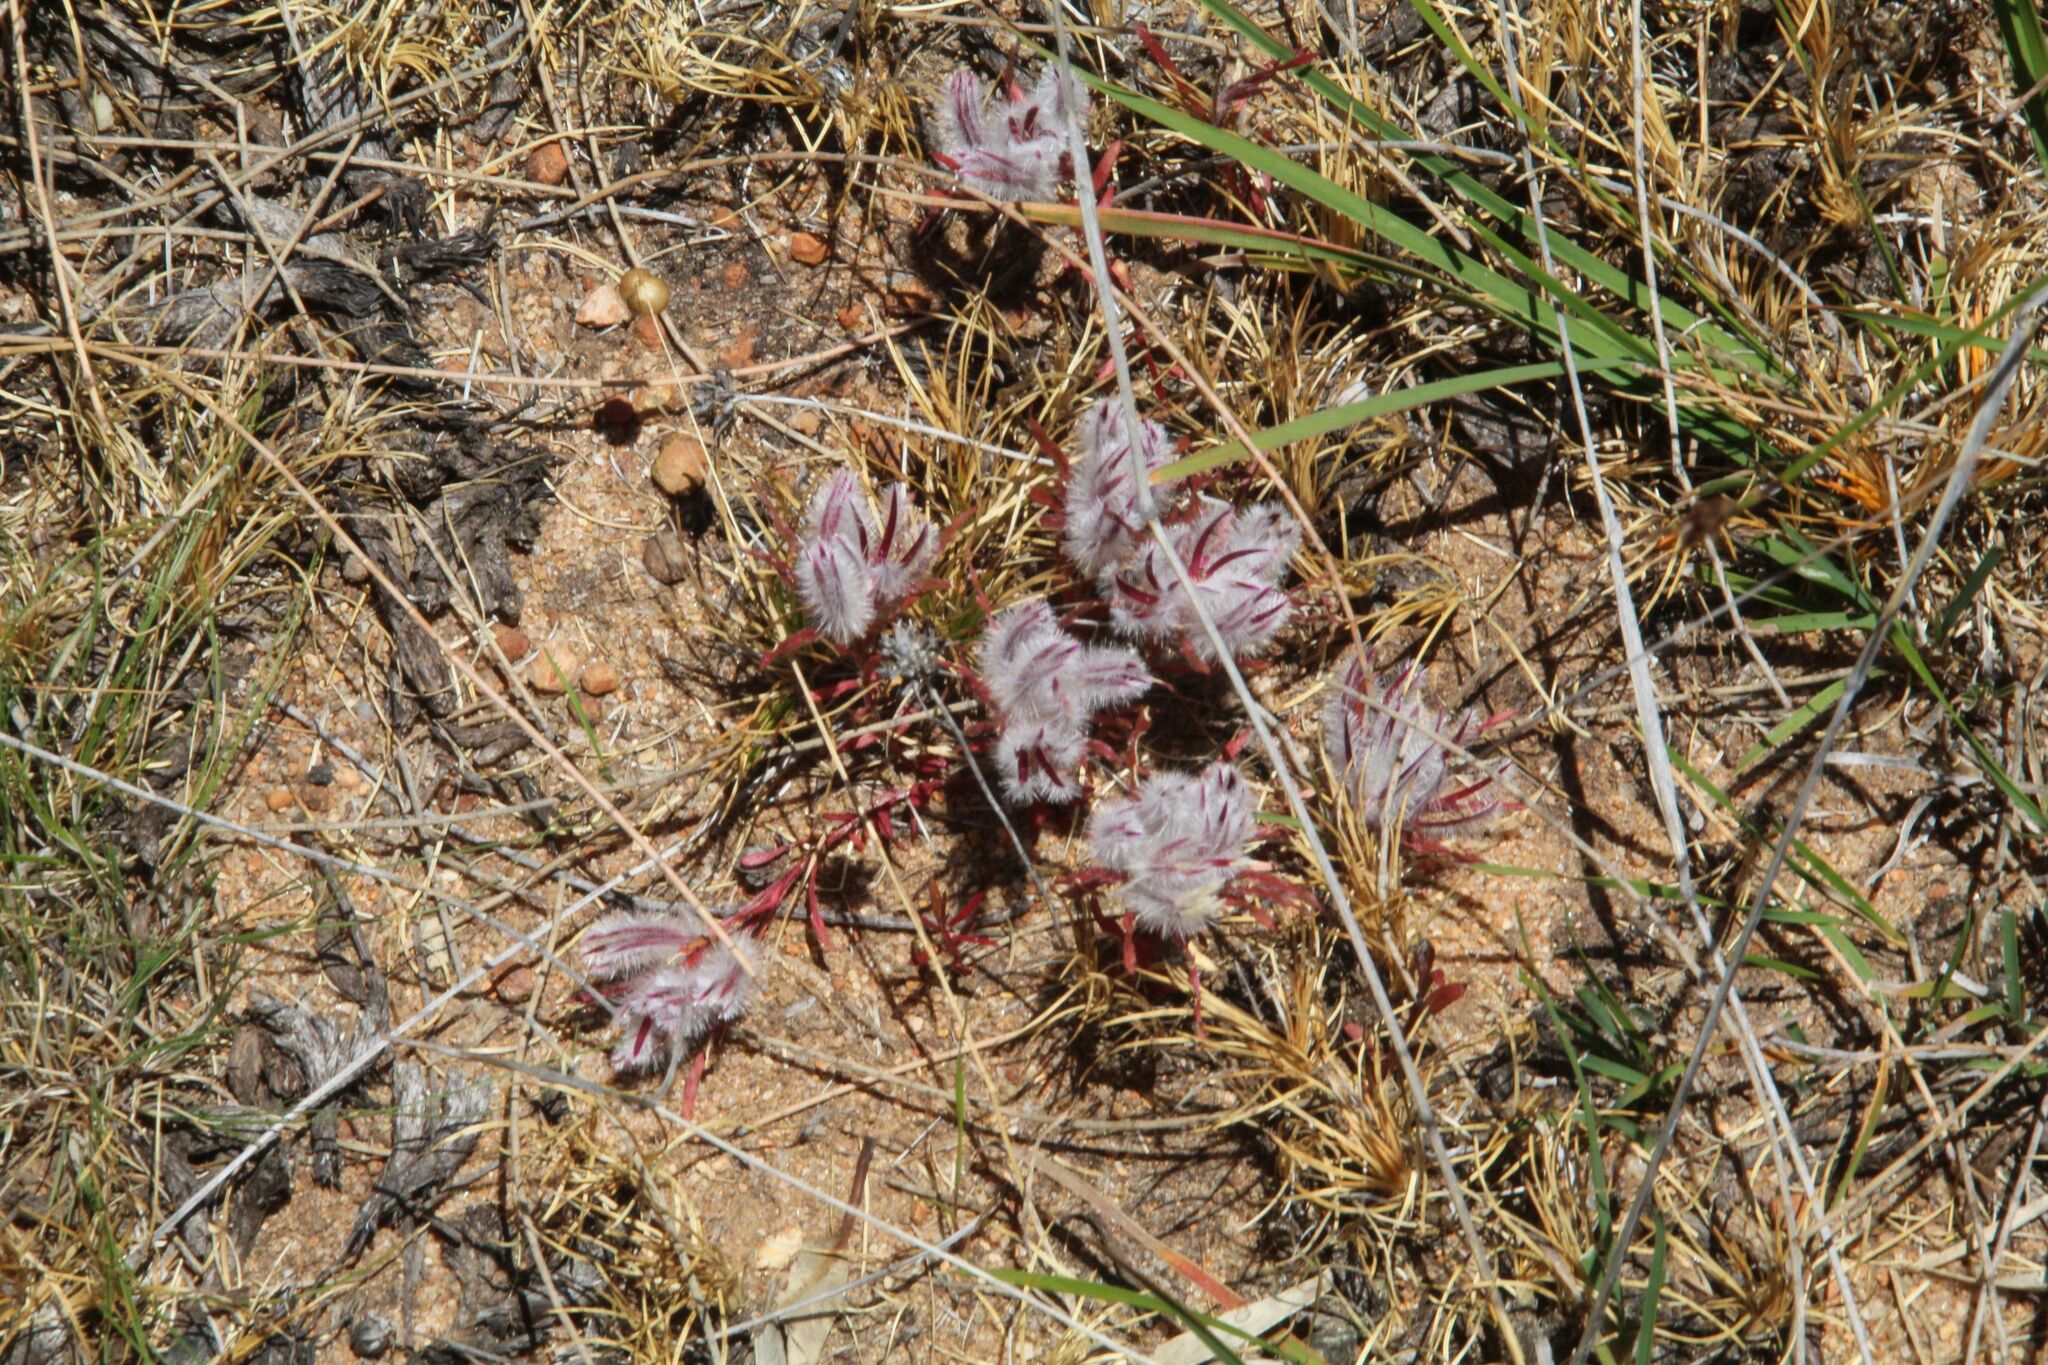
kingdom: Plantae
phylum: Tracheophyta
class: Magnoliopsida
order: Caryophyllales
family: Amaranthaceae
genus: Ptilotus
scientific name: Ptilotus declinatus
